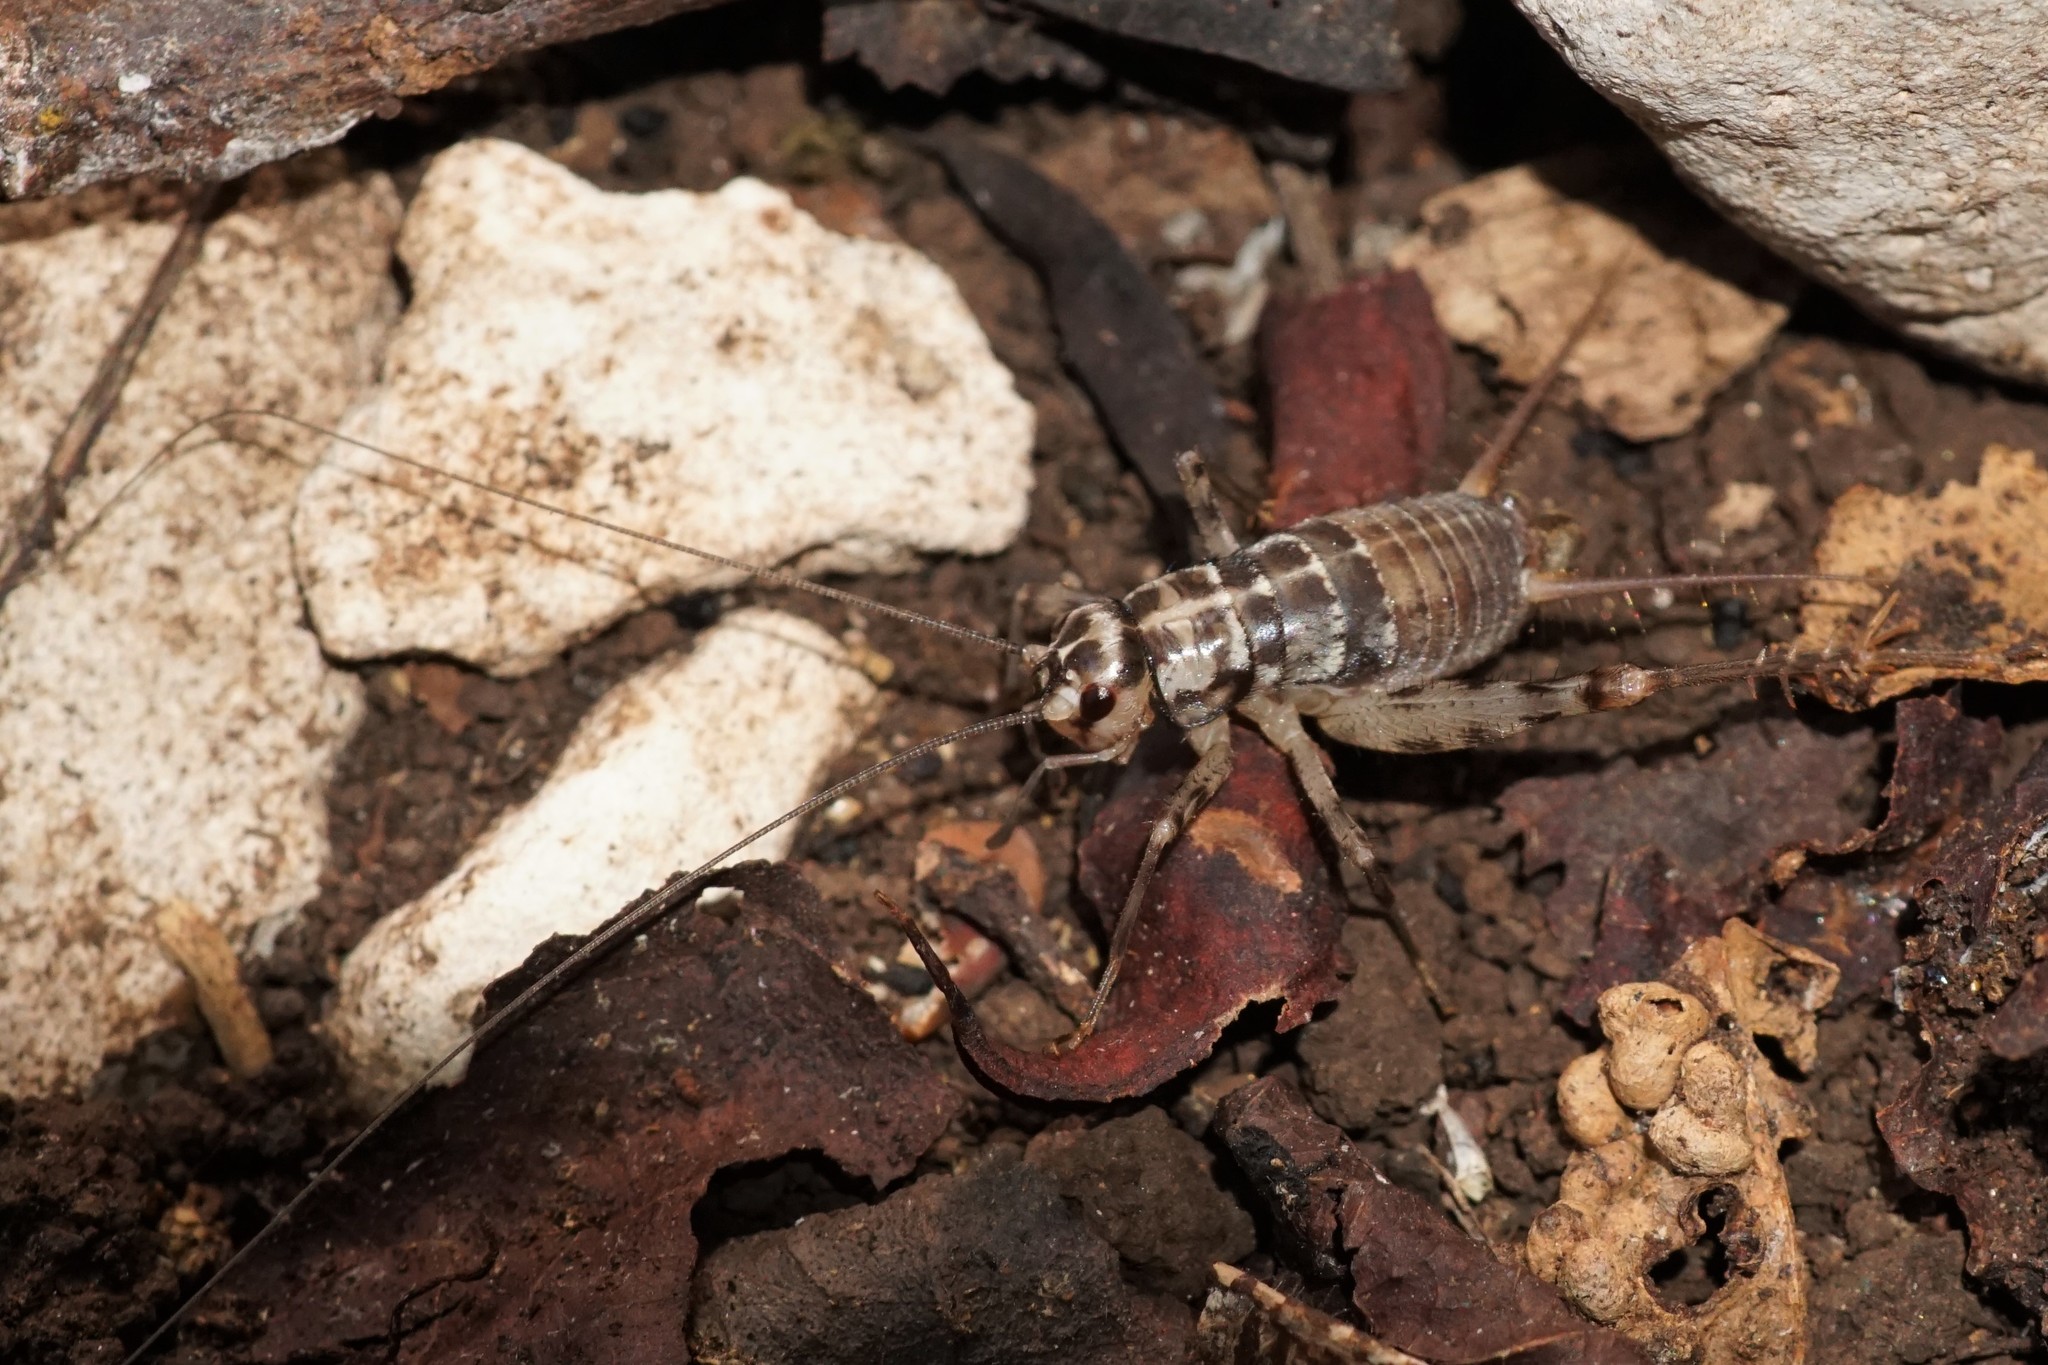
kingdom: Animalia
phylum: Arthropoda
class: Insecta
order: Orthoptera
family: Gryllidae
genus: Gryllomorpha
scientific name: Gryllomorpha dalmatina
